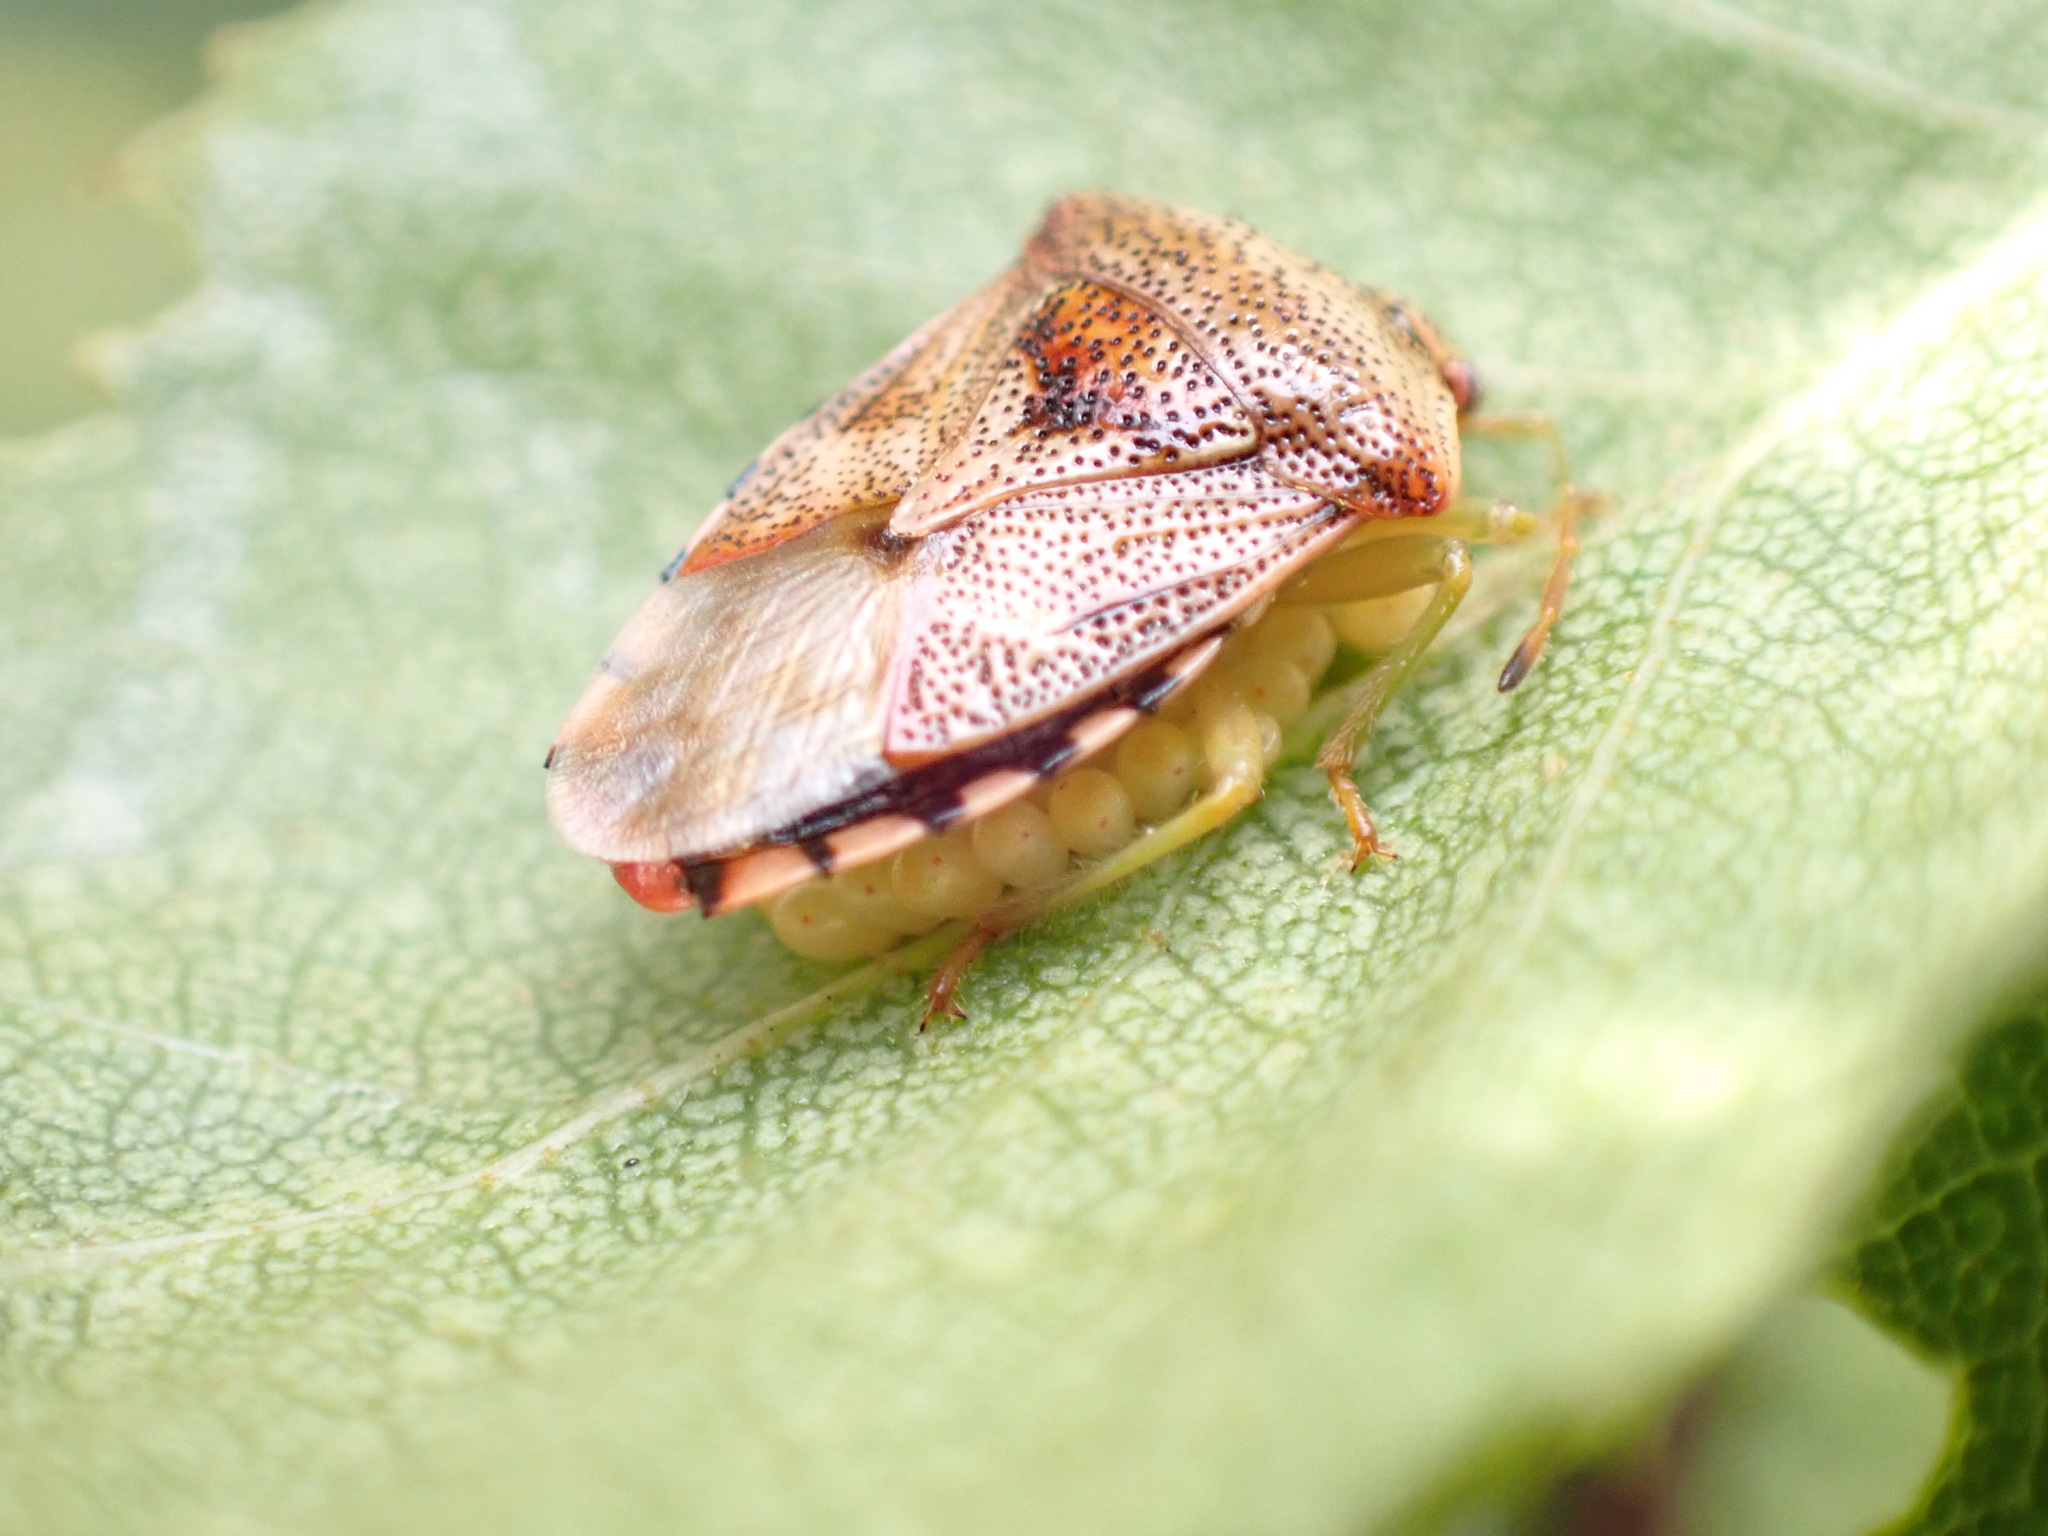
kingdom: Animalia
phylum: Arthropoda
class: Insecta
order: Hemiptera
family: Acanthosomatidae
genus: Elasmucha
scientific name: Elasmucha grisea
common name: Parent bug
